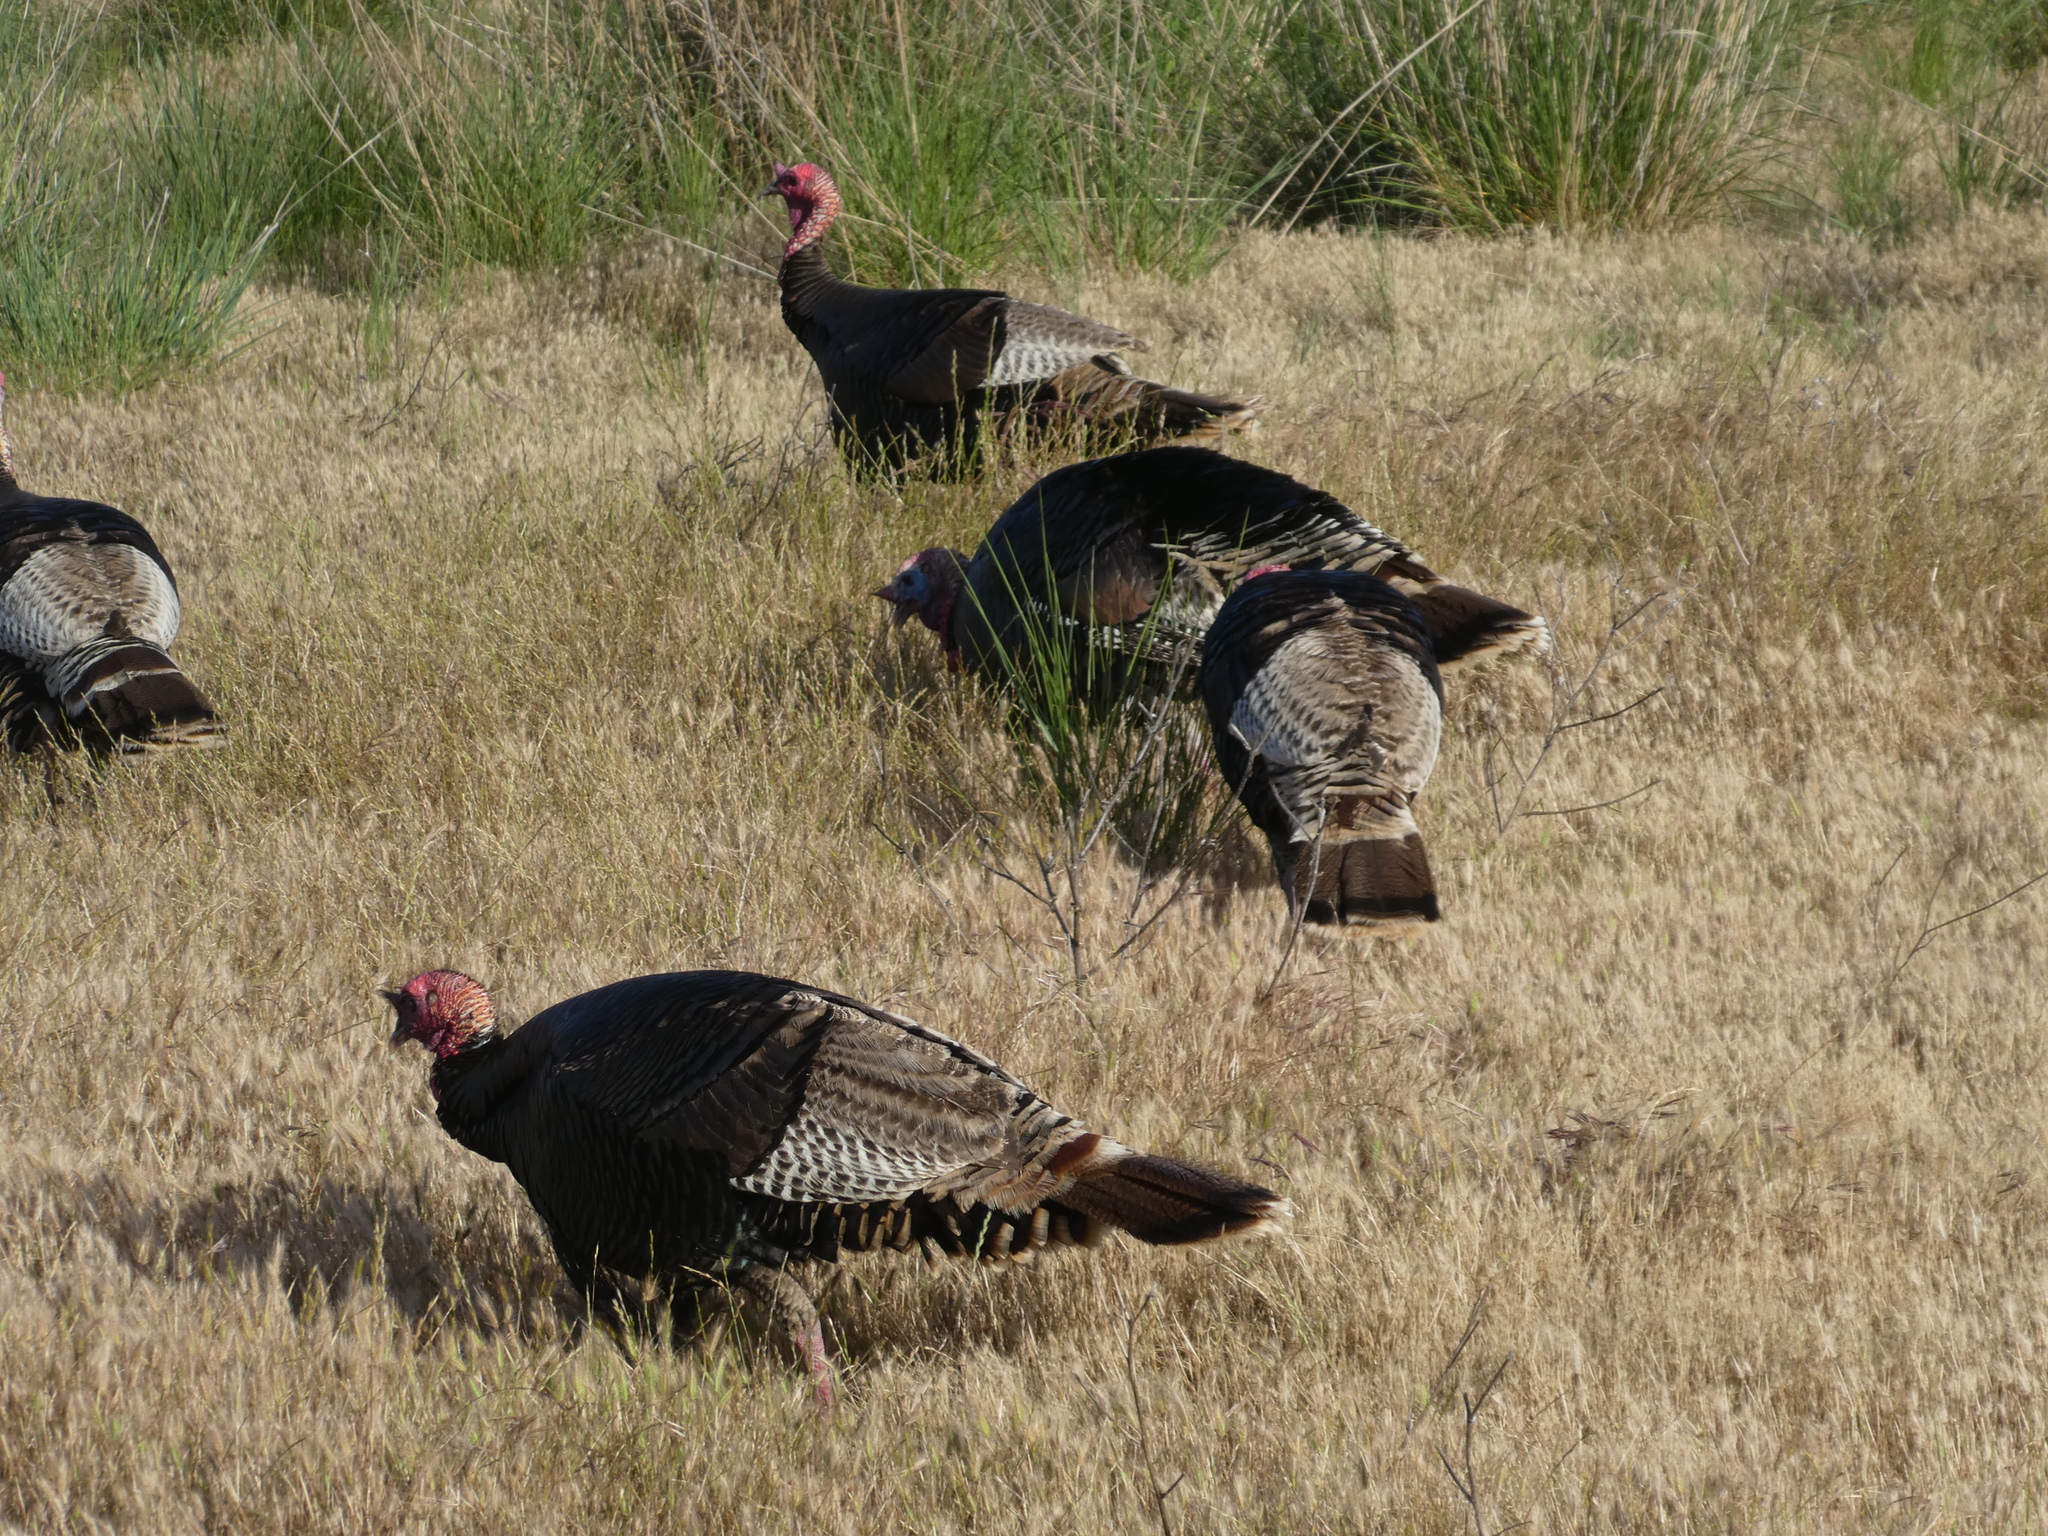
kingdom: Animalia
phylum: Chordata
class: Aves
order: Galliformes
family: Phasianidae
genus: Meleagris
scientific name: Meleagris gallopavo
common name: Wild turkey
